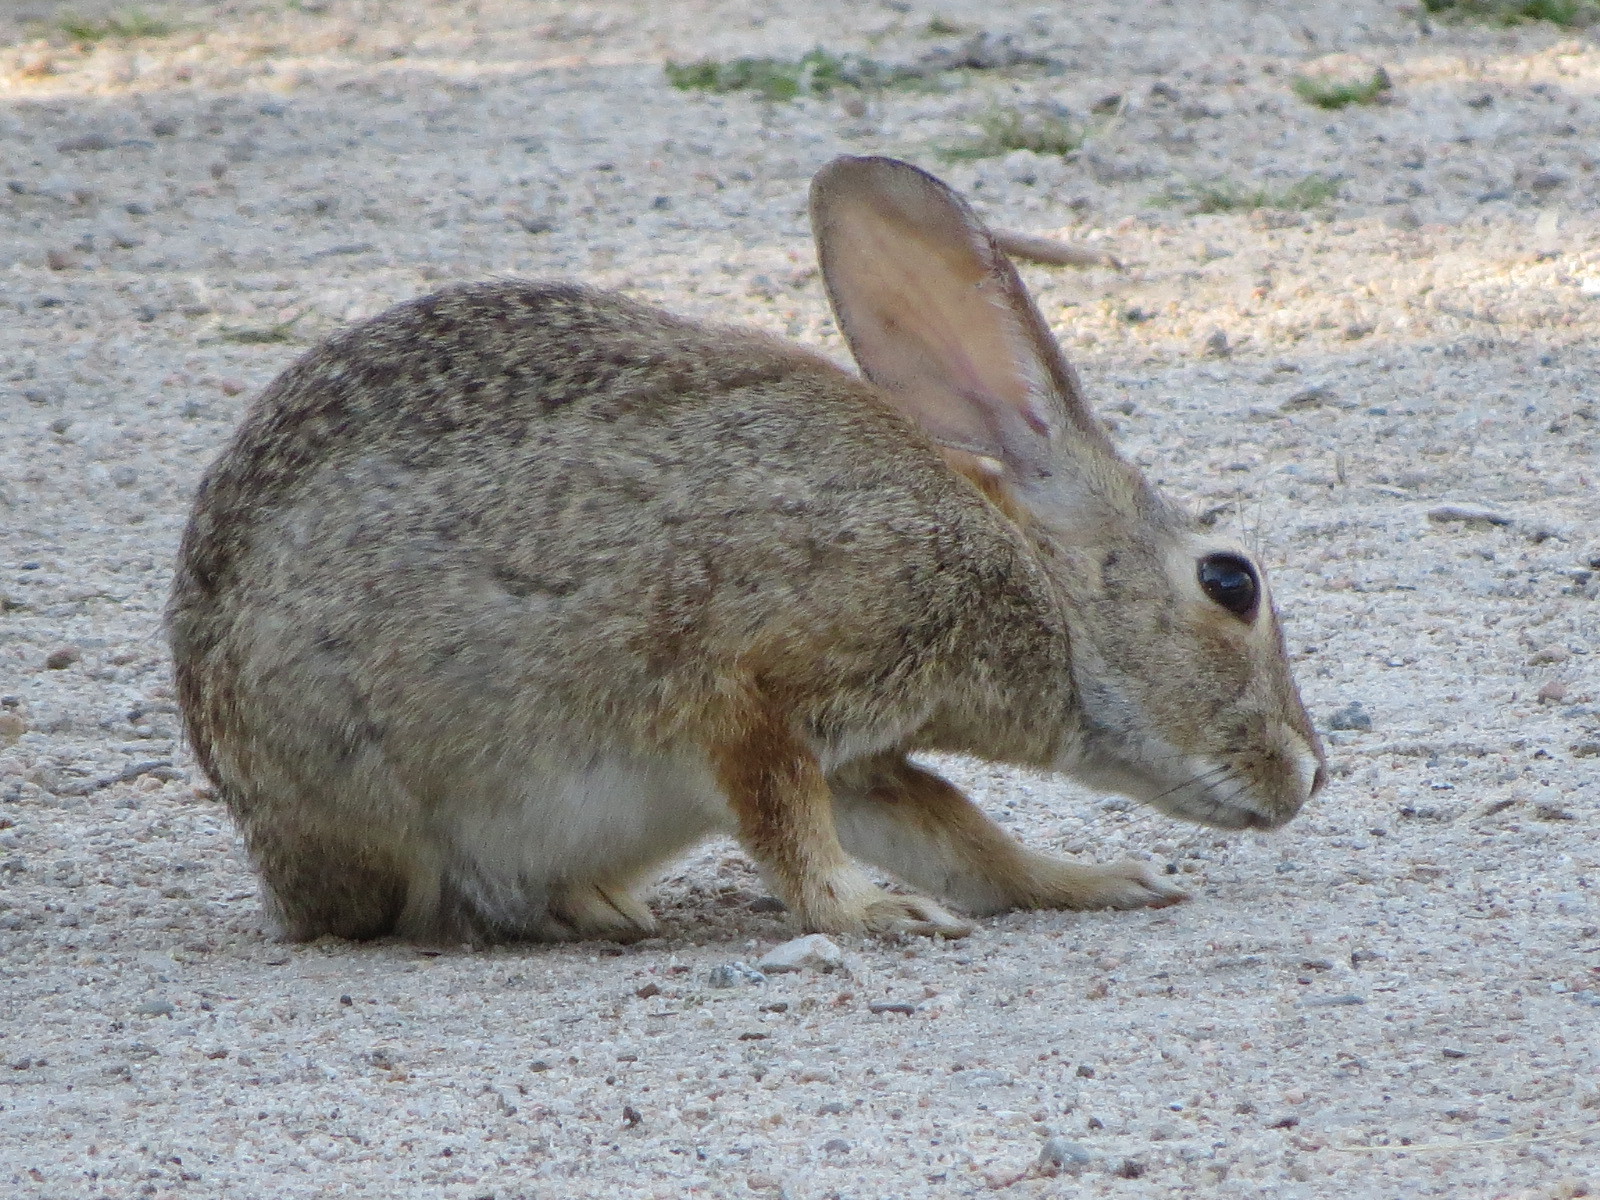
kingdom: Animalia
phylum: Chordata
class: Mammalia
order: Lagomorpha
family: Leporidae
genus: Sylvilagus
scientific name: Sylvilagus audubonii
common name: Desert cottontail
